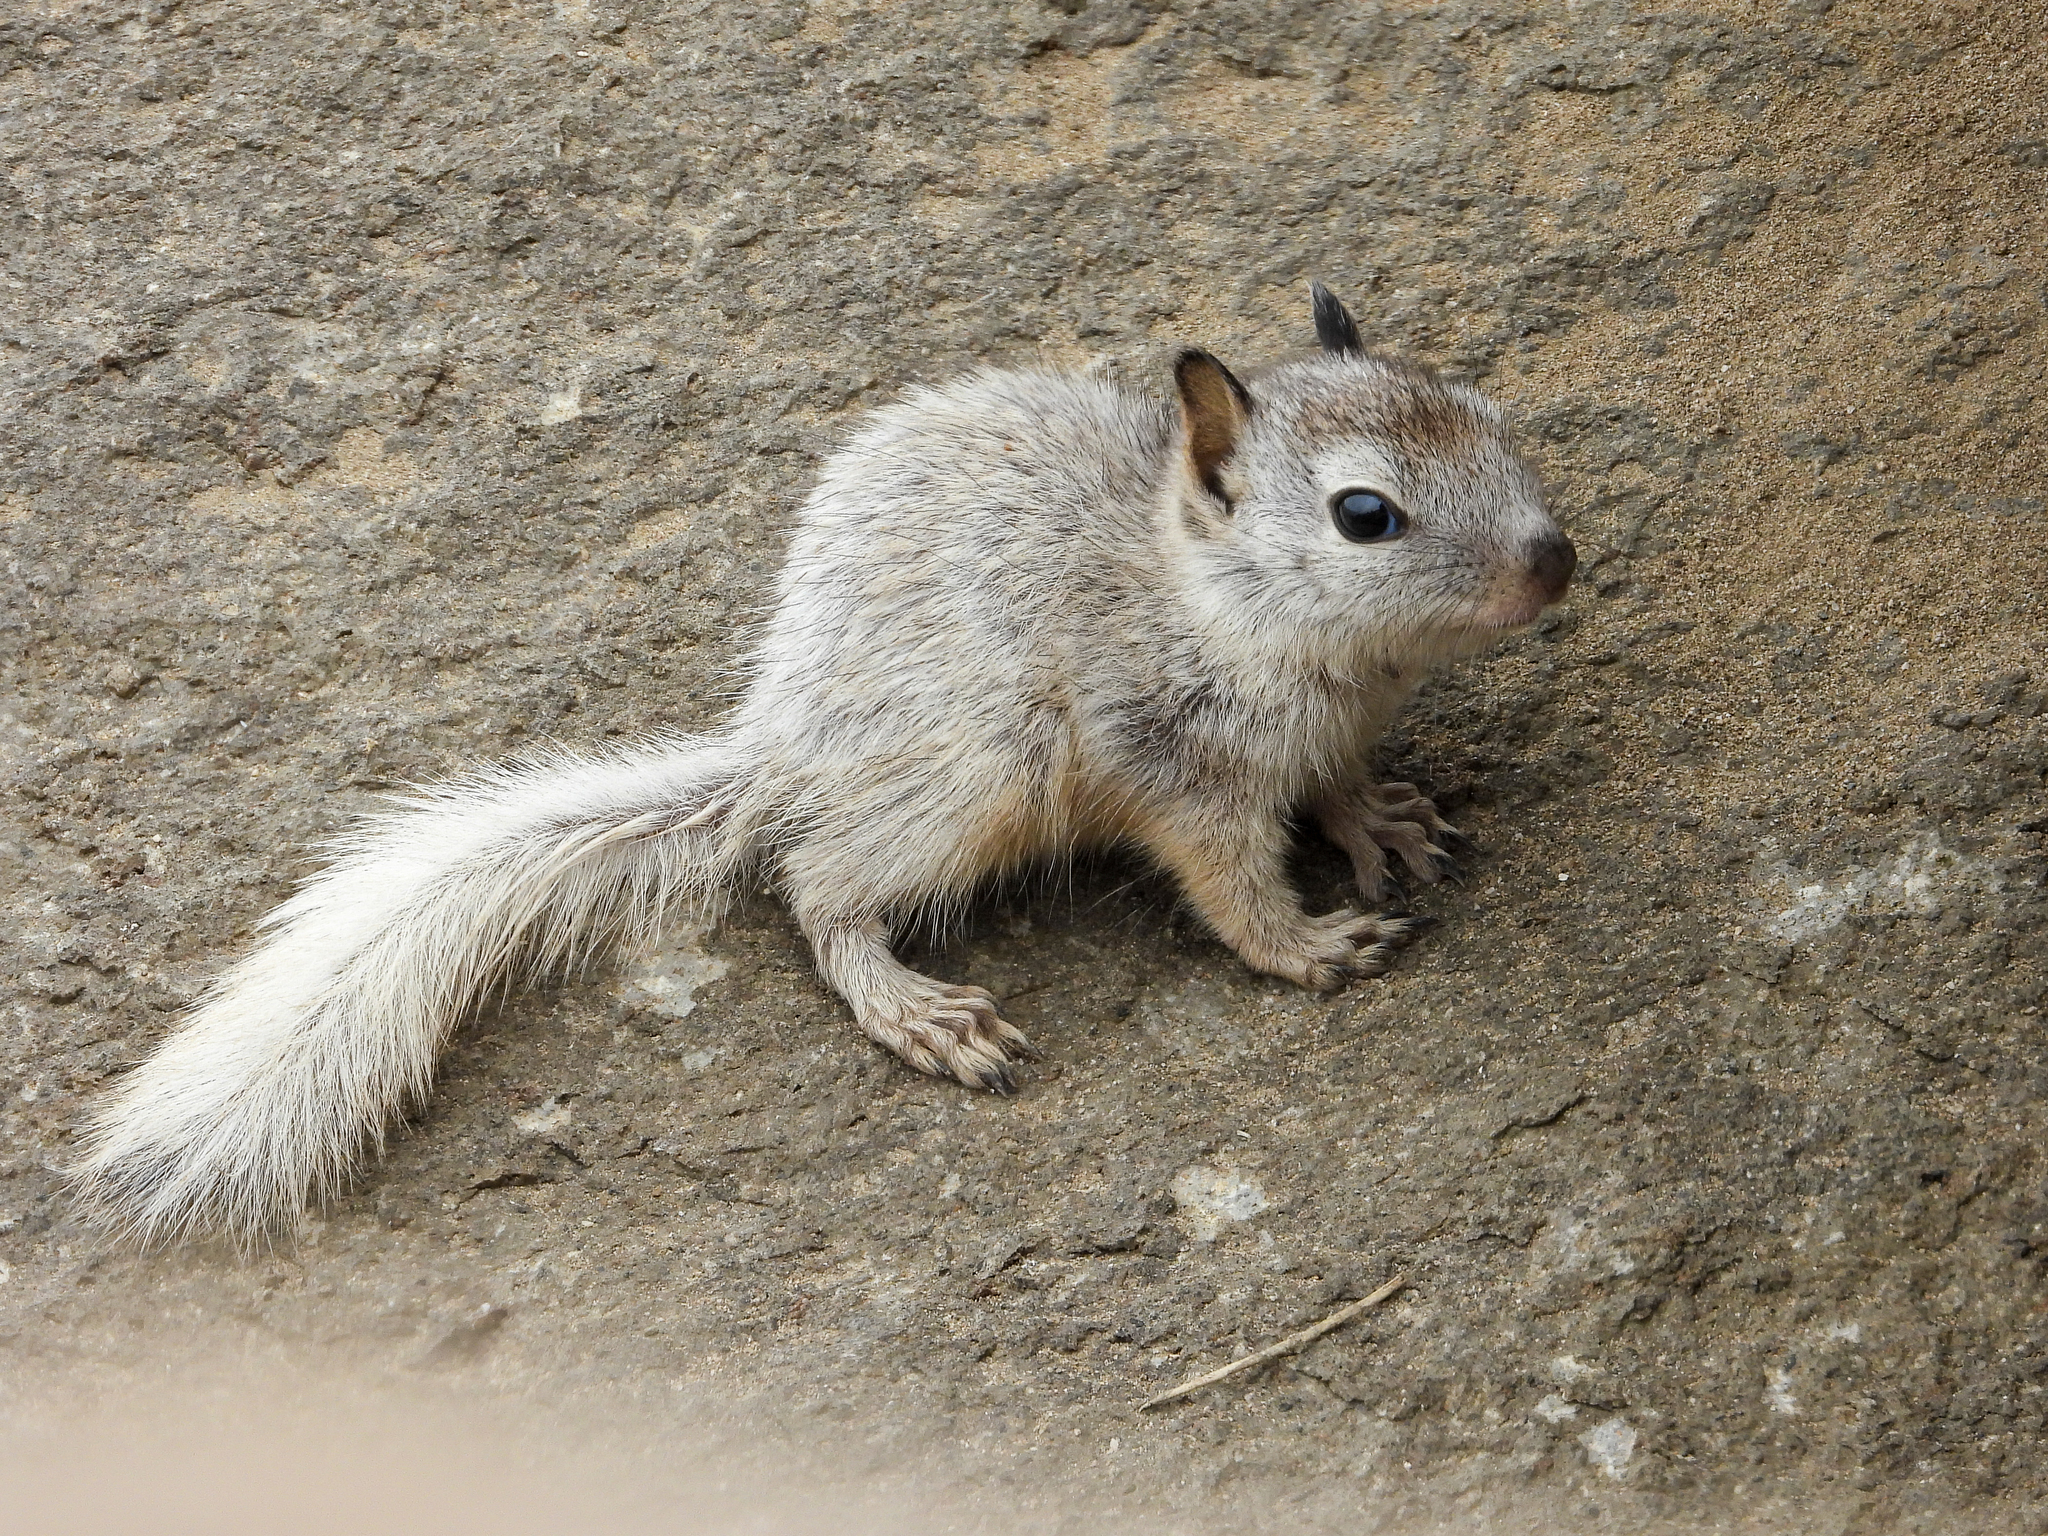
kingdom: Animalia
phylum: Chordata
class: Mammalia
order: Rodentia
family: Sciuridae
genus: Otospermophilus
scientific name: Otospermophilus beecheyi
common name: California ground squirrel
